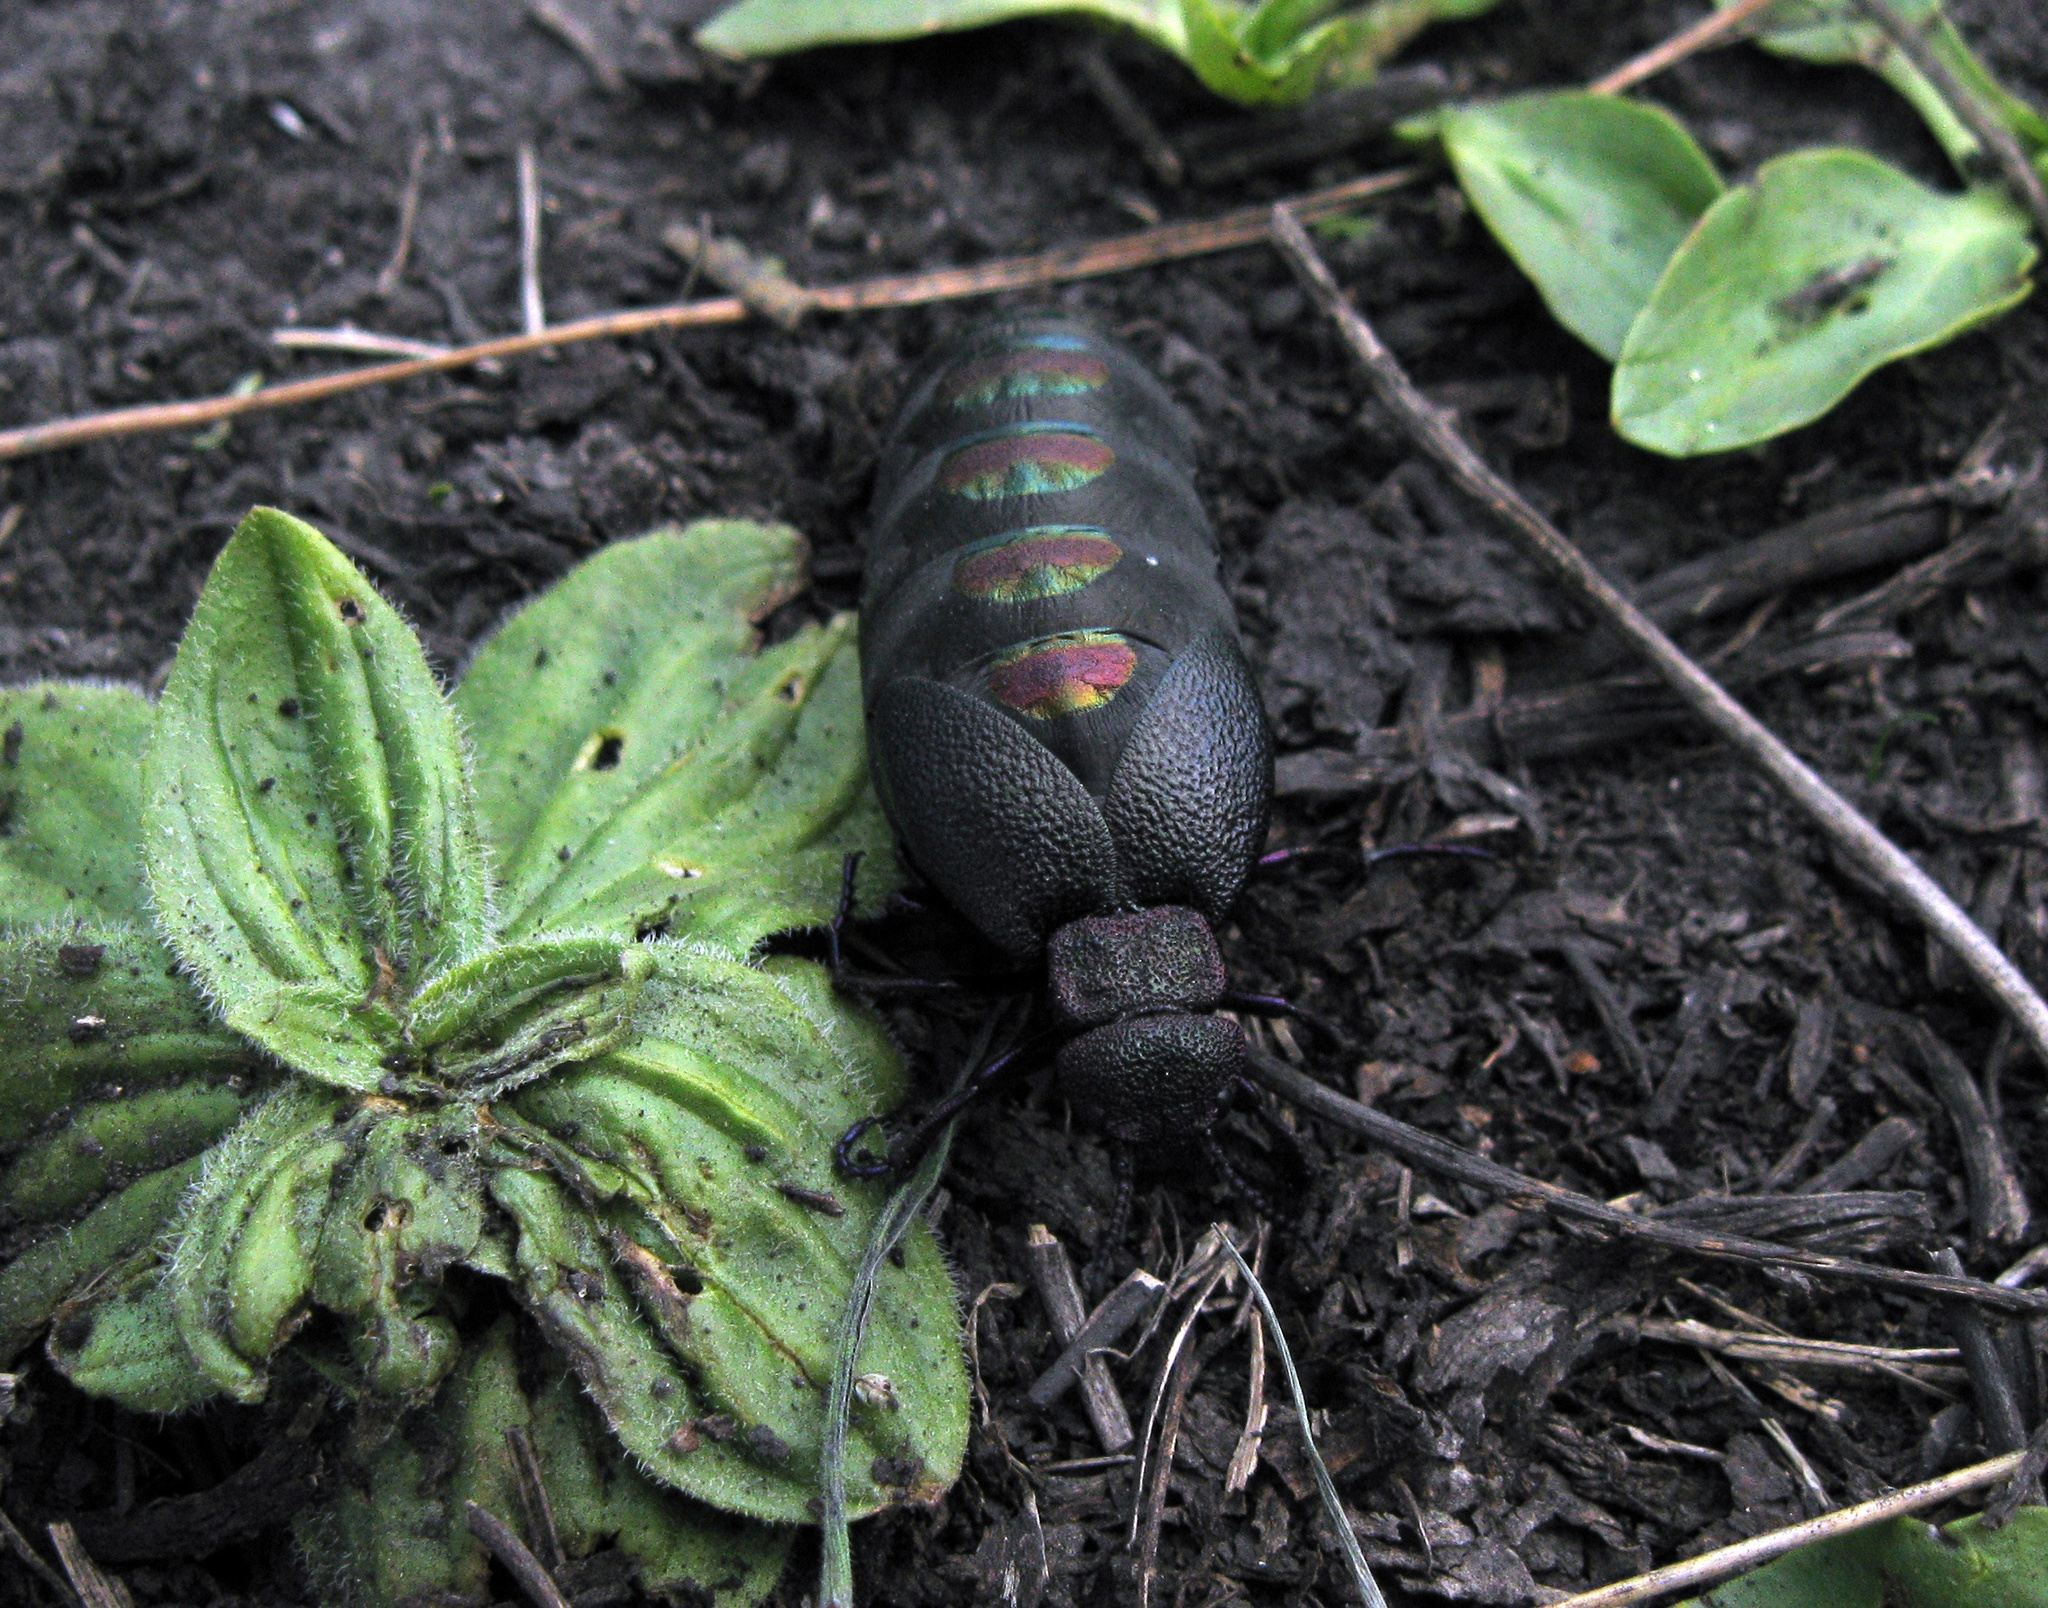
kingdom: Animalia
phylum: Arthropoda
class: Insecta
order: Coleoptera
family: Meloidae
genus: Meloe
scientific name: Meloe variegatus
